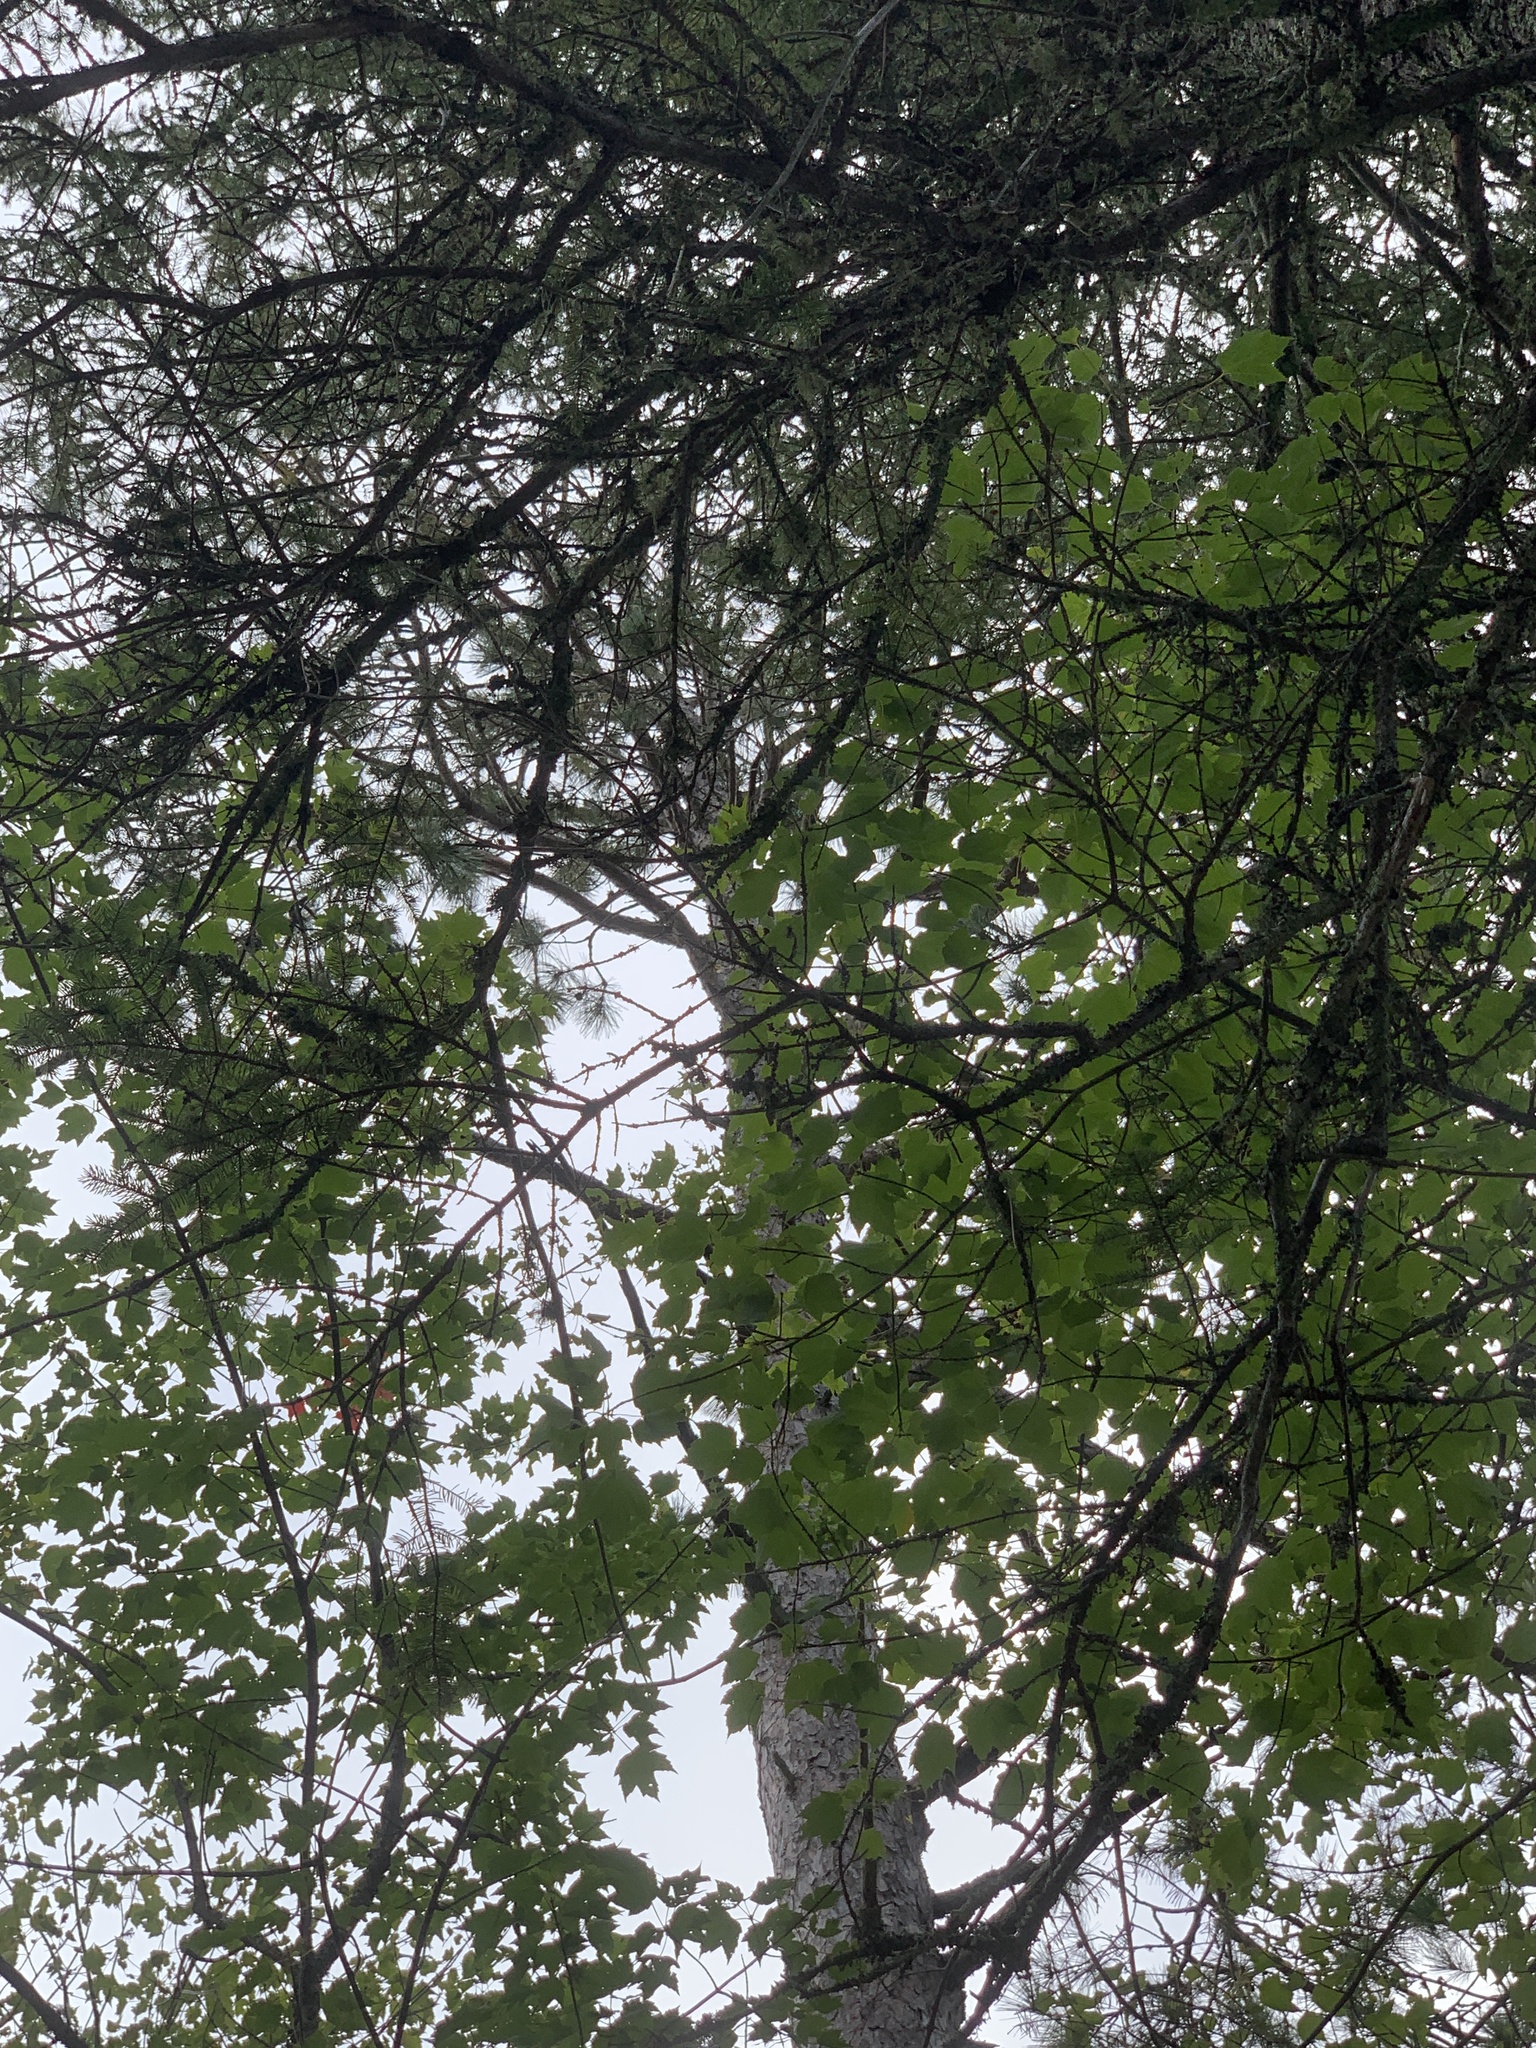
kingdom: Plantae
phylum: Tracheophyta
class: Pinopsida
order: Pinales
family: Pinaceae
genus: Pinus
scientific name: Pinus resinosa
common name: Norway pine
